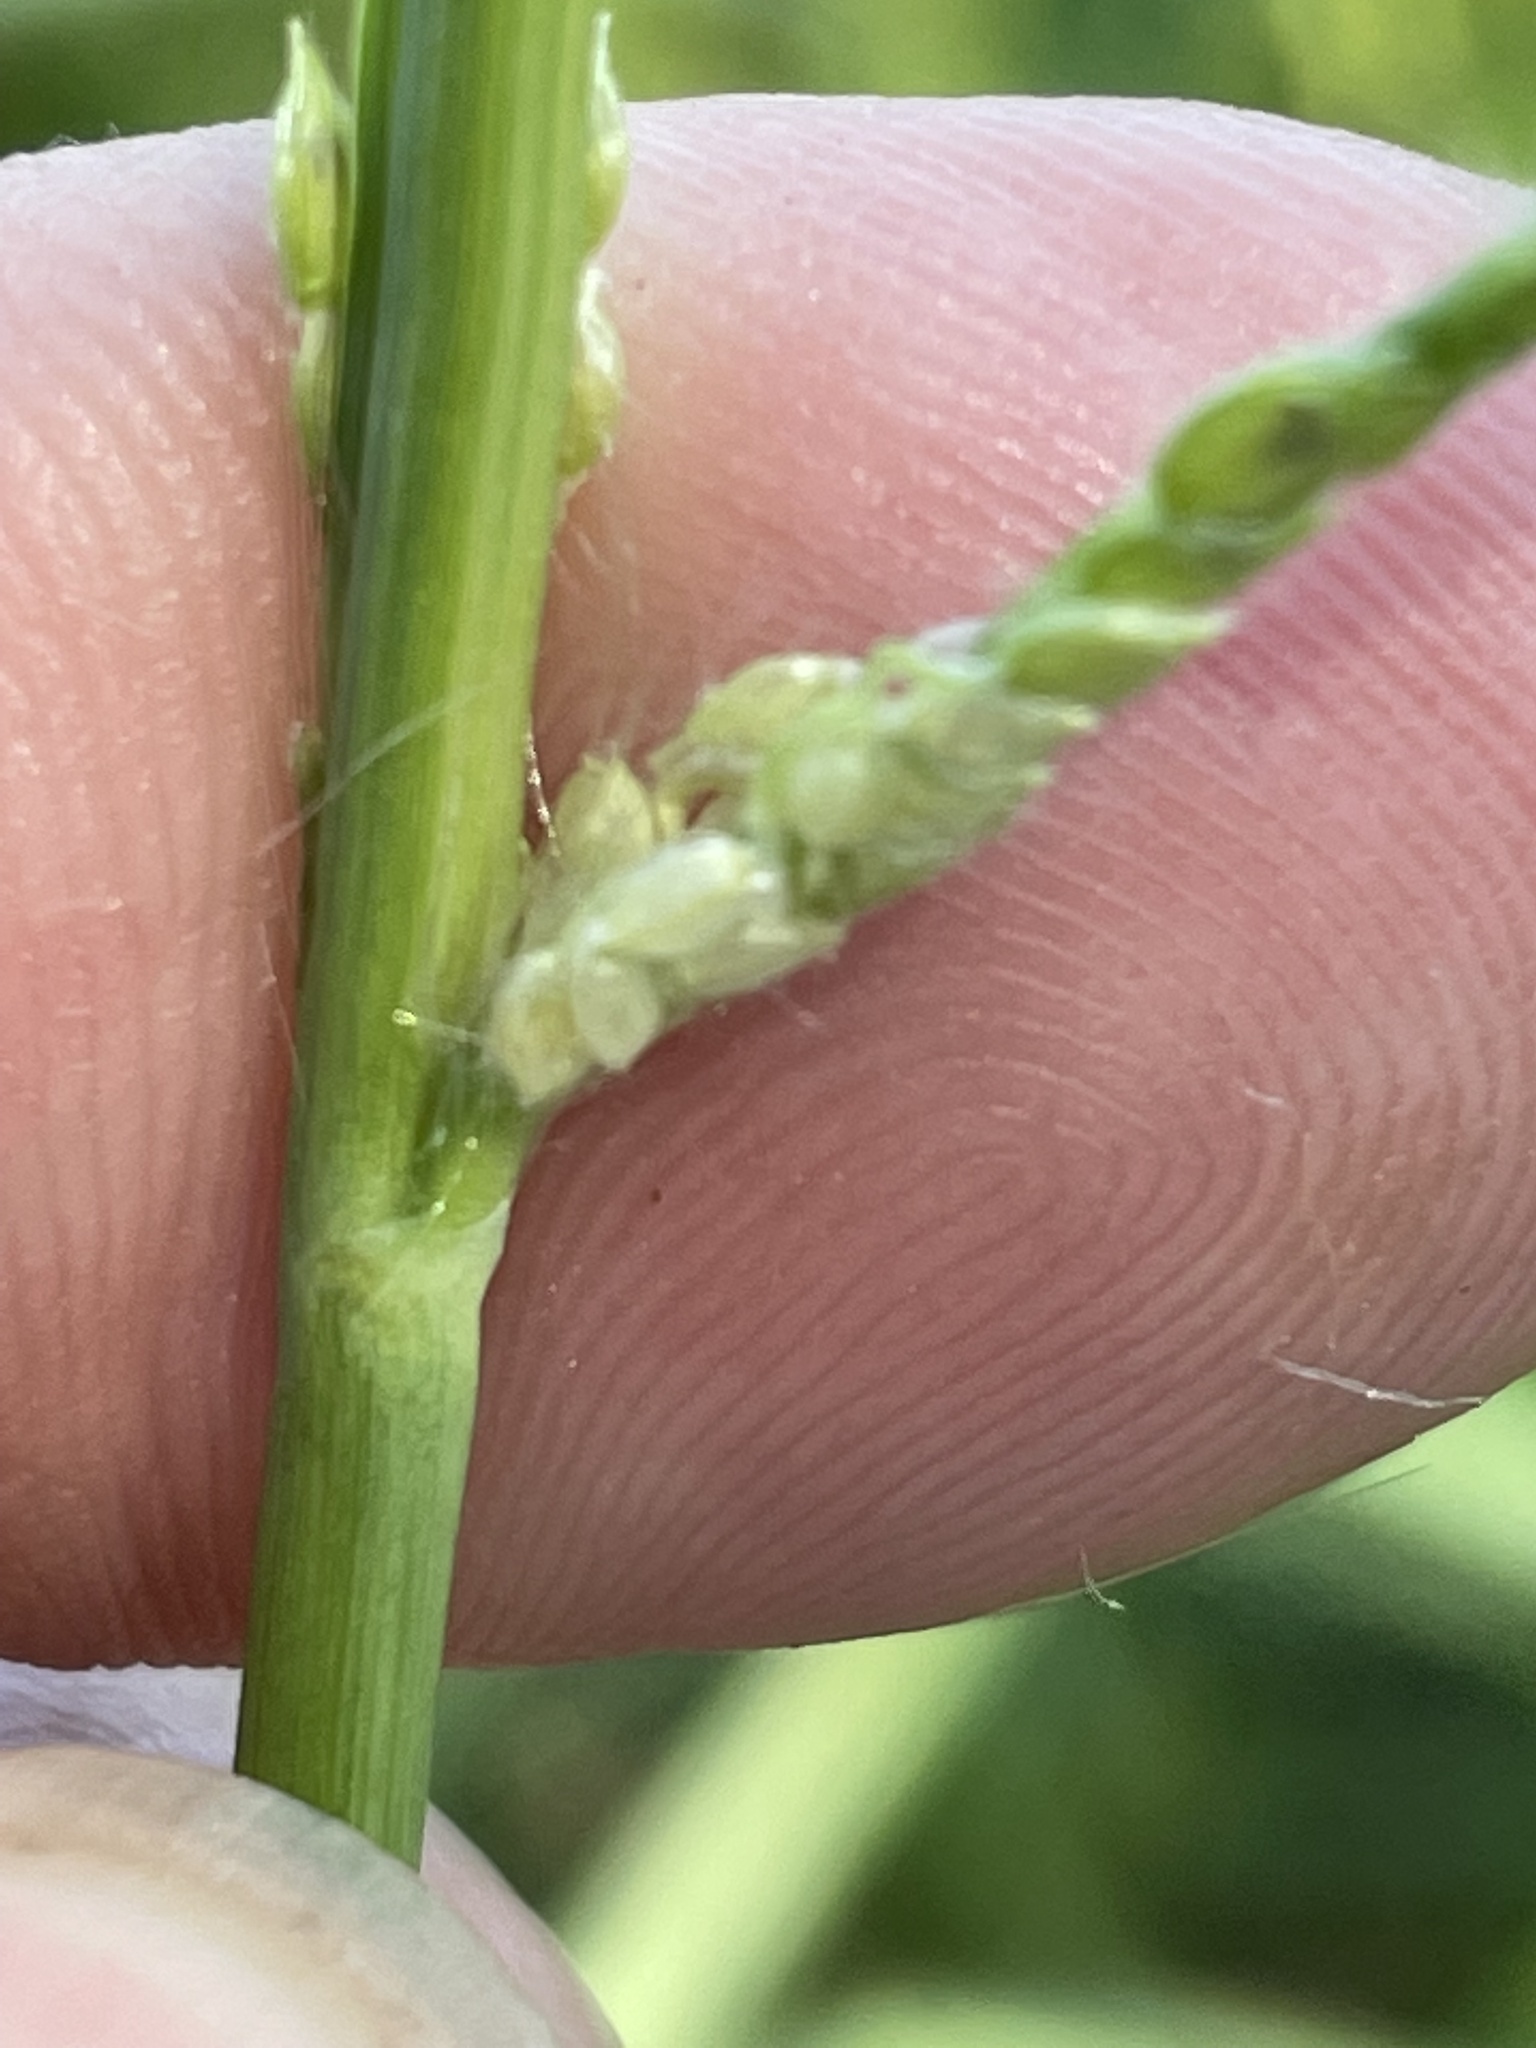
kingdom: Plantae
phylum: Tracheophyta
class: Liliopsida
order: Poales
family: Poaceae
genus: Paspalum
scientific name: Paspalum urvillei
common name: Vasey's grass
